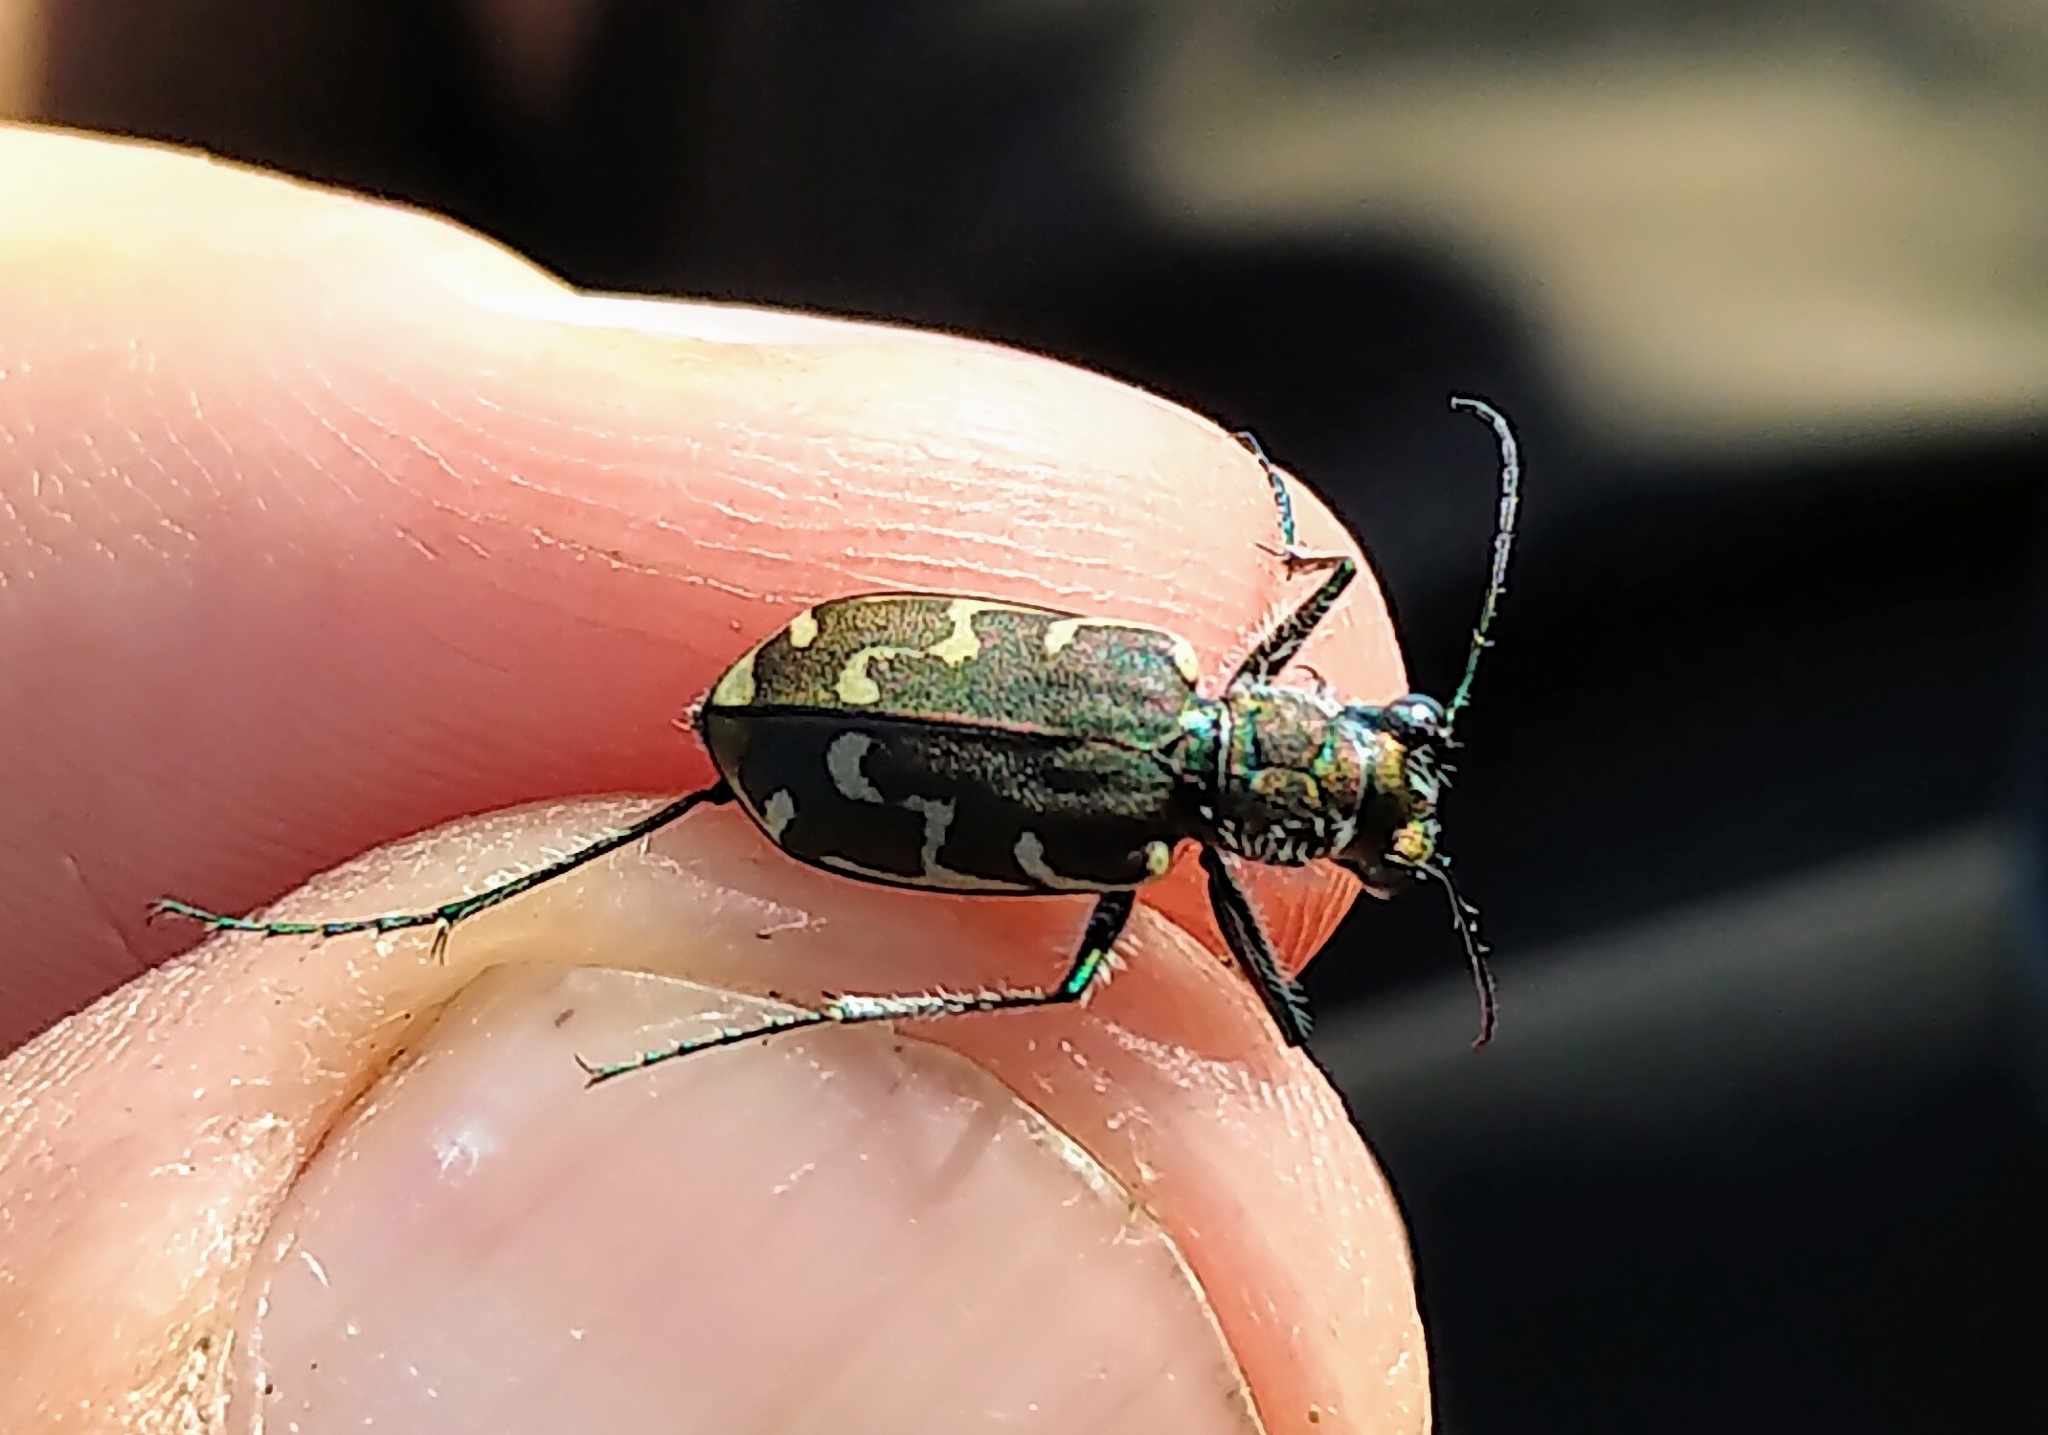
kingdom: Animalia
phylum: Arthropoda
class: Insecta
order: Coleoptera
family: Carabidae
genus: Cicindela
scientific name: Cicindela repanda
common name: Bronzed tiger beetle
